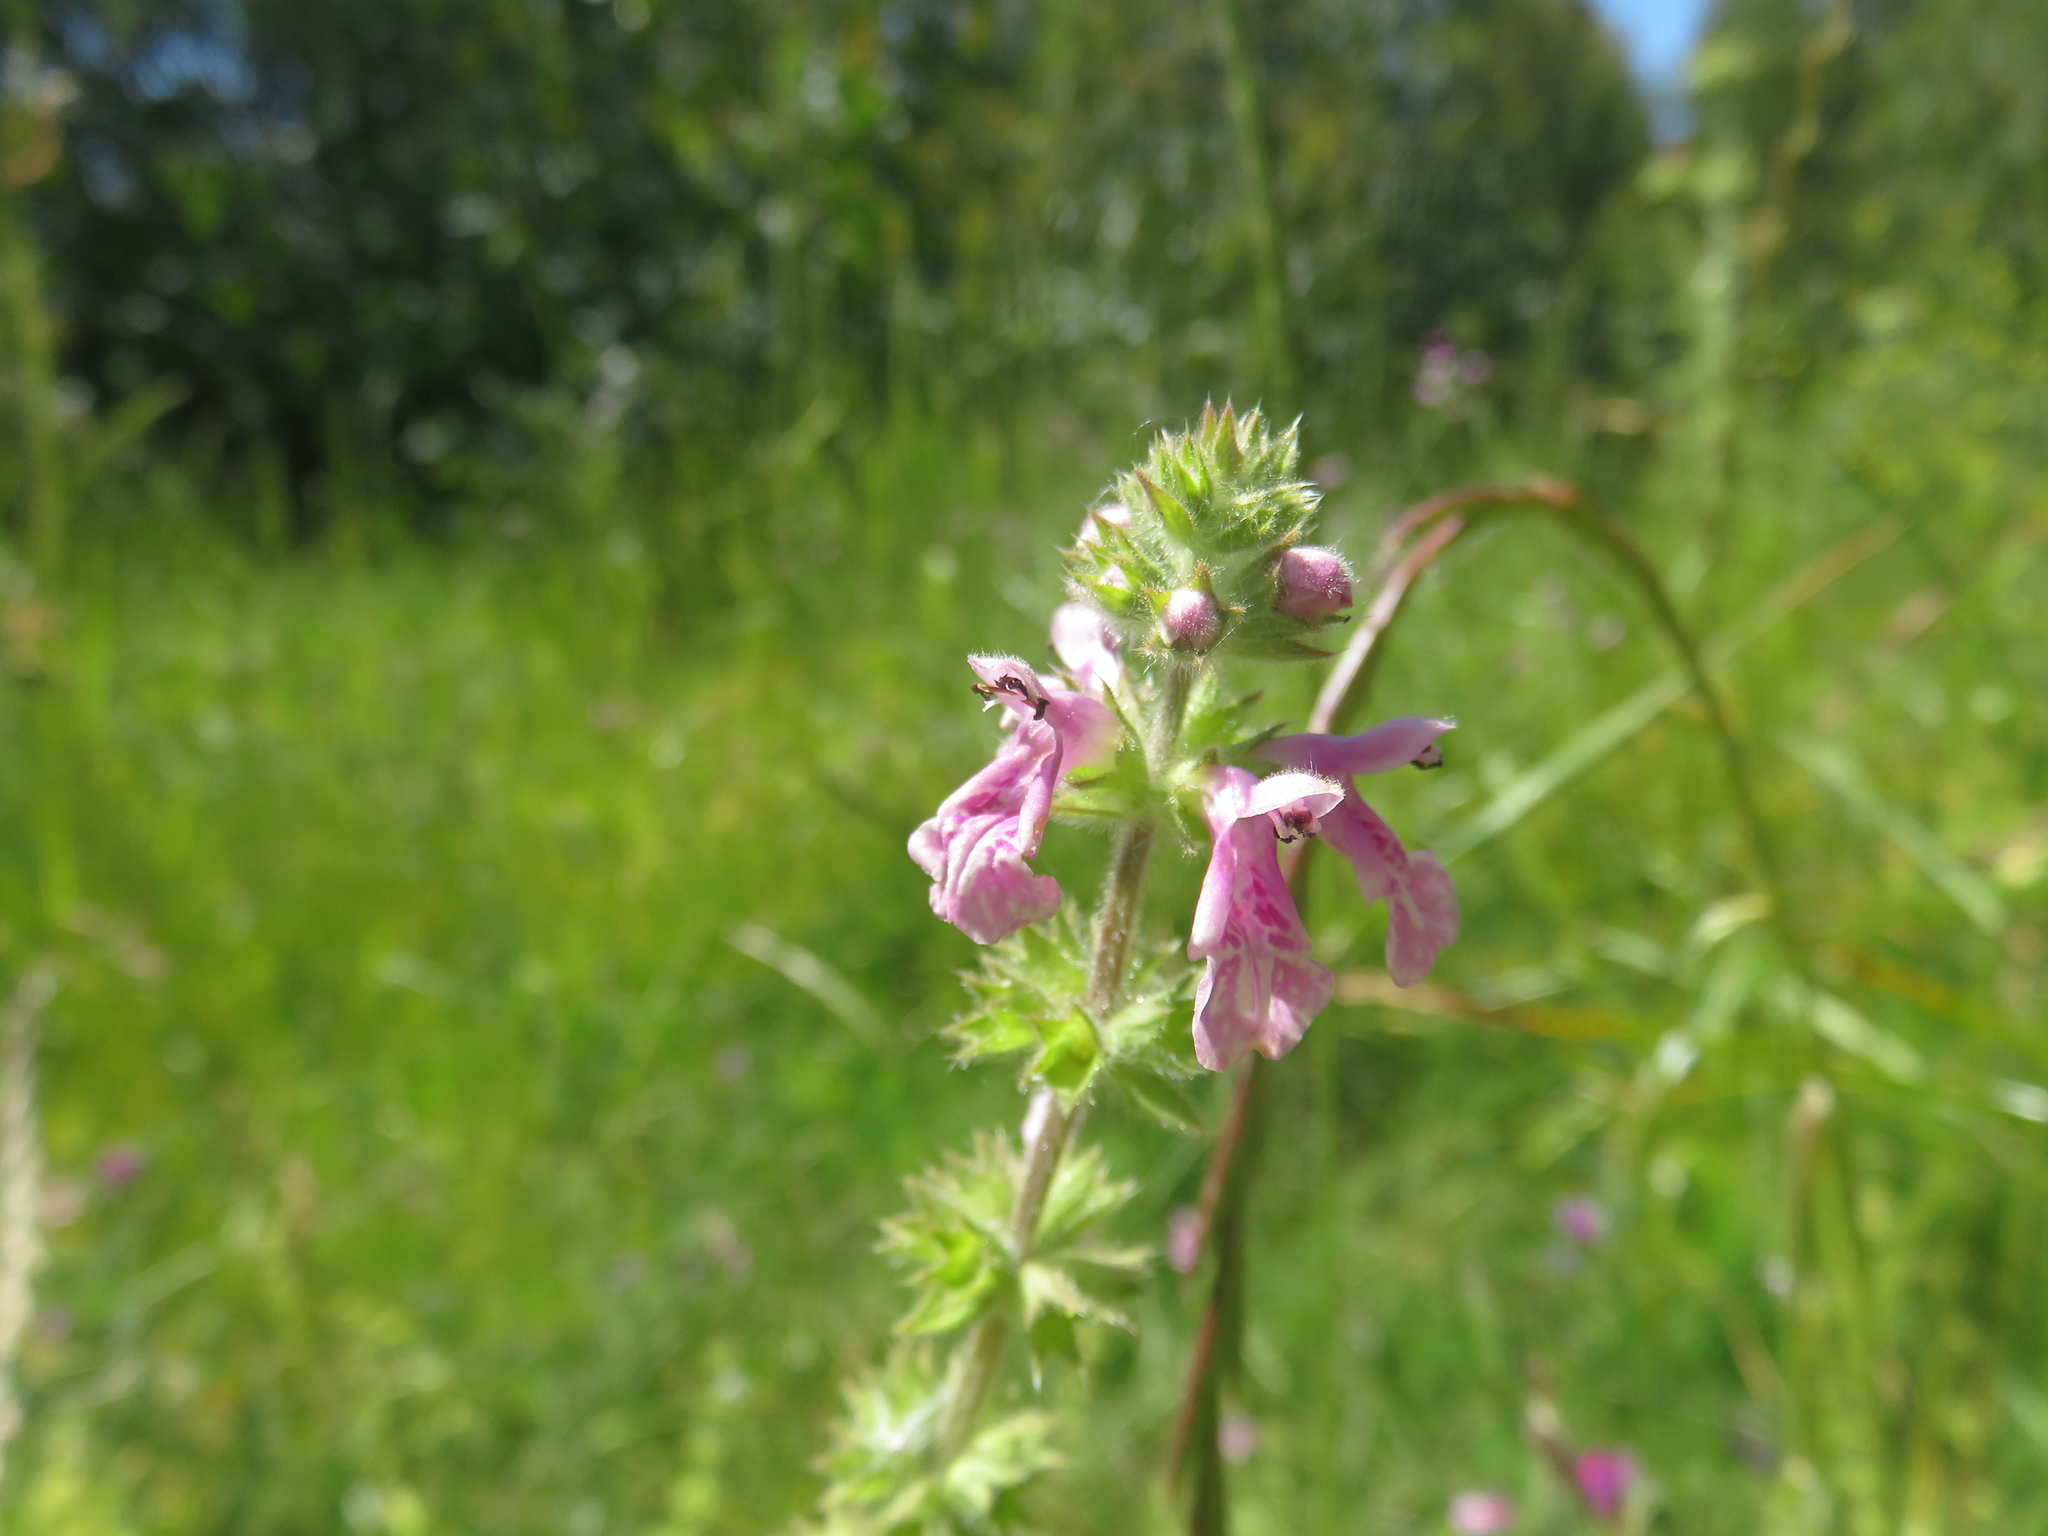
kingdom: Plantae
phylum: Tracheophyta
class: Magnoliopsida
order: Lamiales
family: Lamiaceae
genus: Stachys
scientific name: Stachys grandidentata
